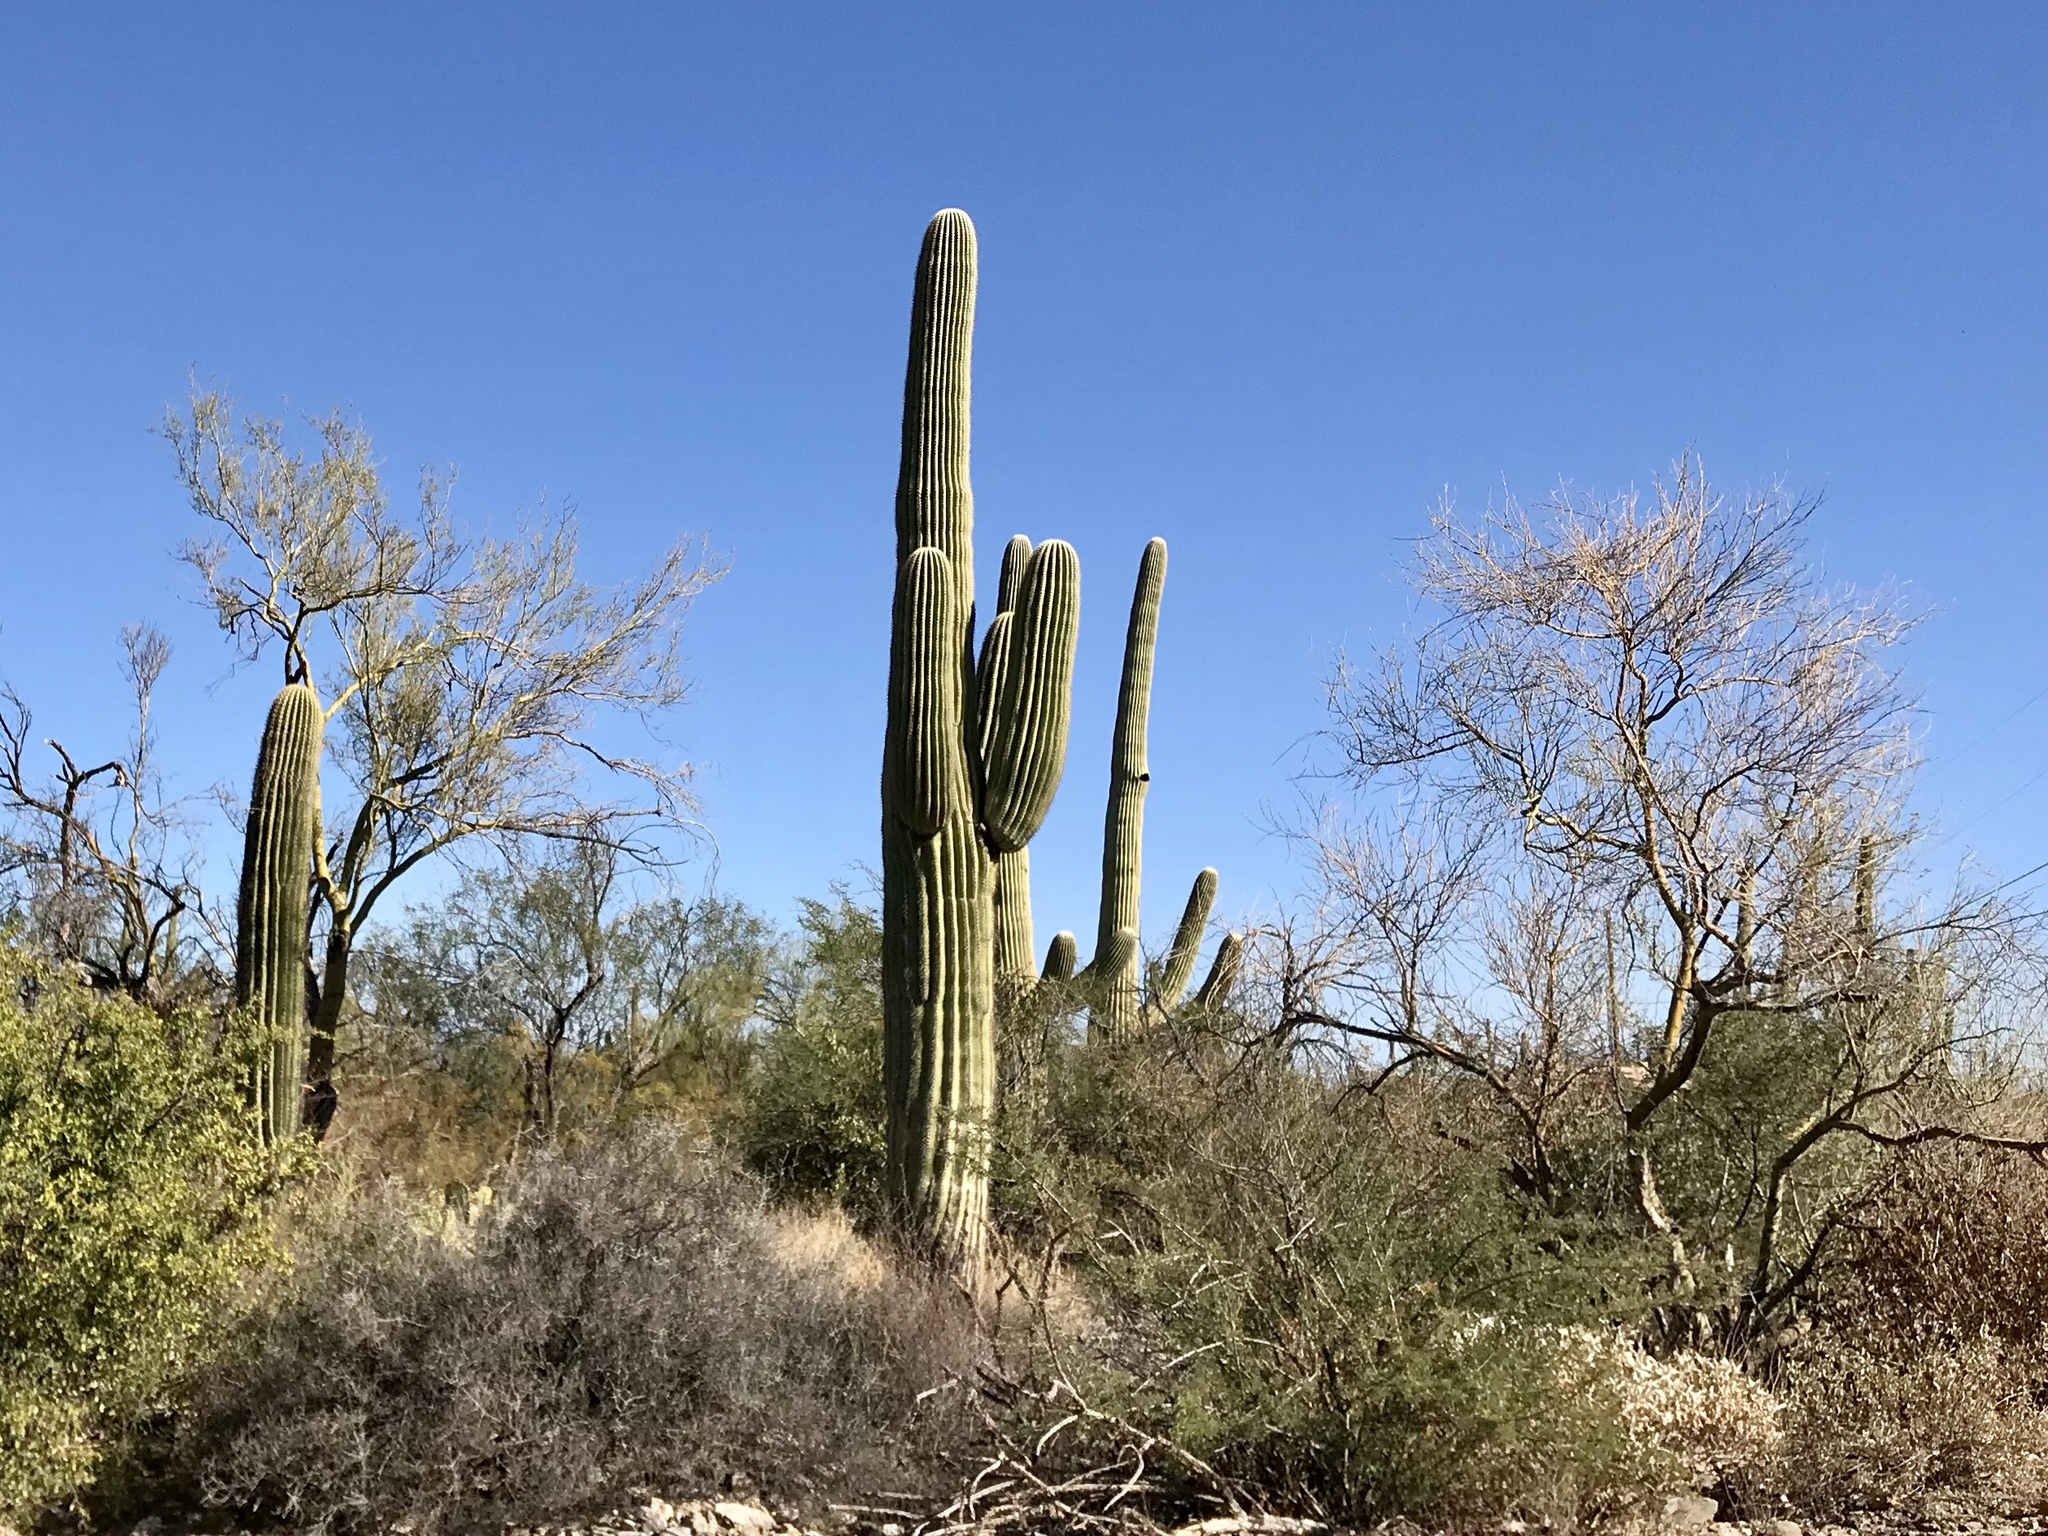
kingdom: Plantae
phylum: Tracheophyta
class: Magnoliopsida
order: Caryophyllales
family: Cactaceae
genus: Carnegiea
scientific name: Carnegiea gigantea
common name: Saguaro
